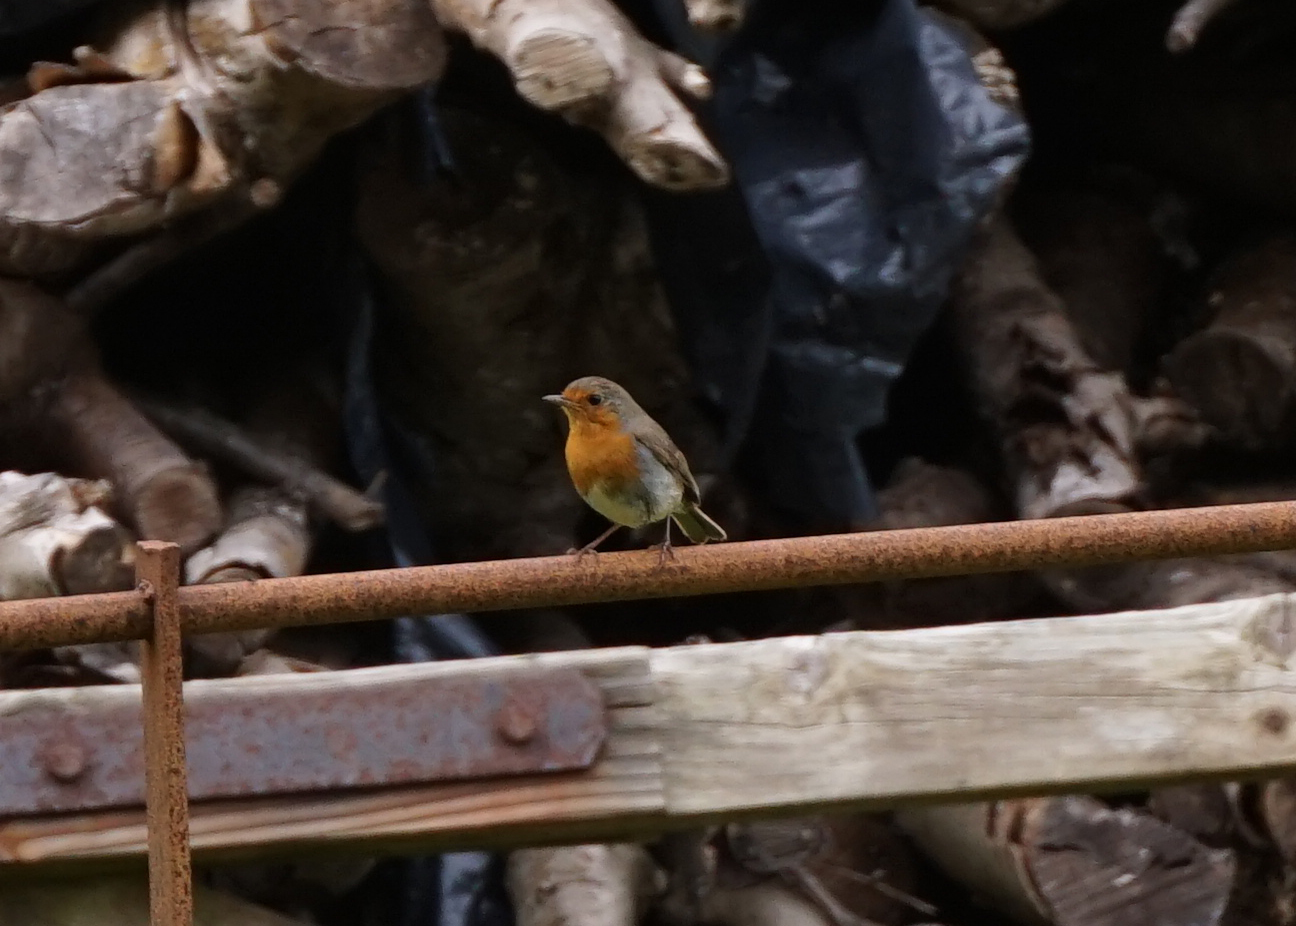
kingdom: Animalia
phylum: Chordata
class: Aves
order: Passeriformes
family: Muscicapidae
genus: Erithacus
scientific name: Erithacus rubecula
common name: European robin
